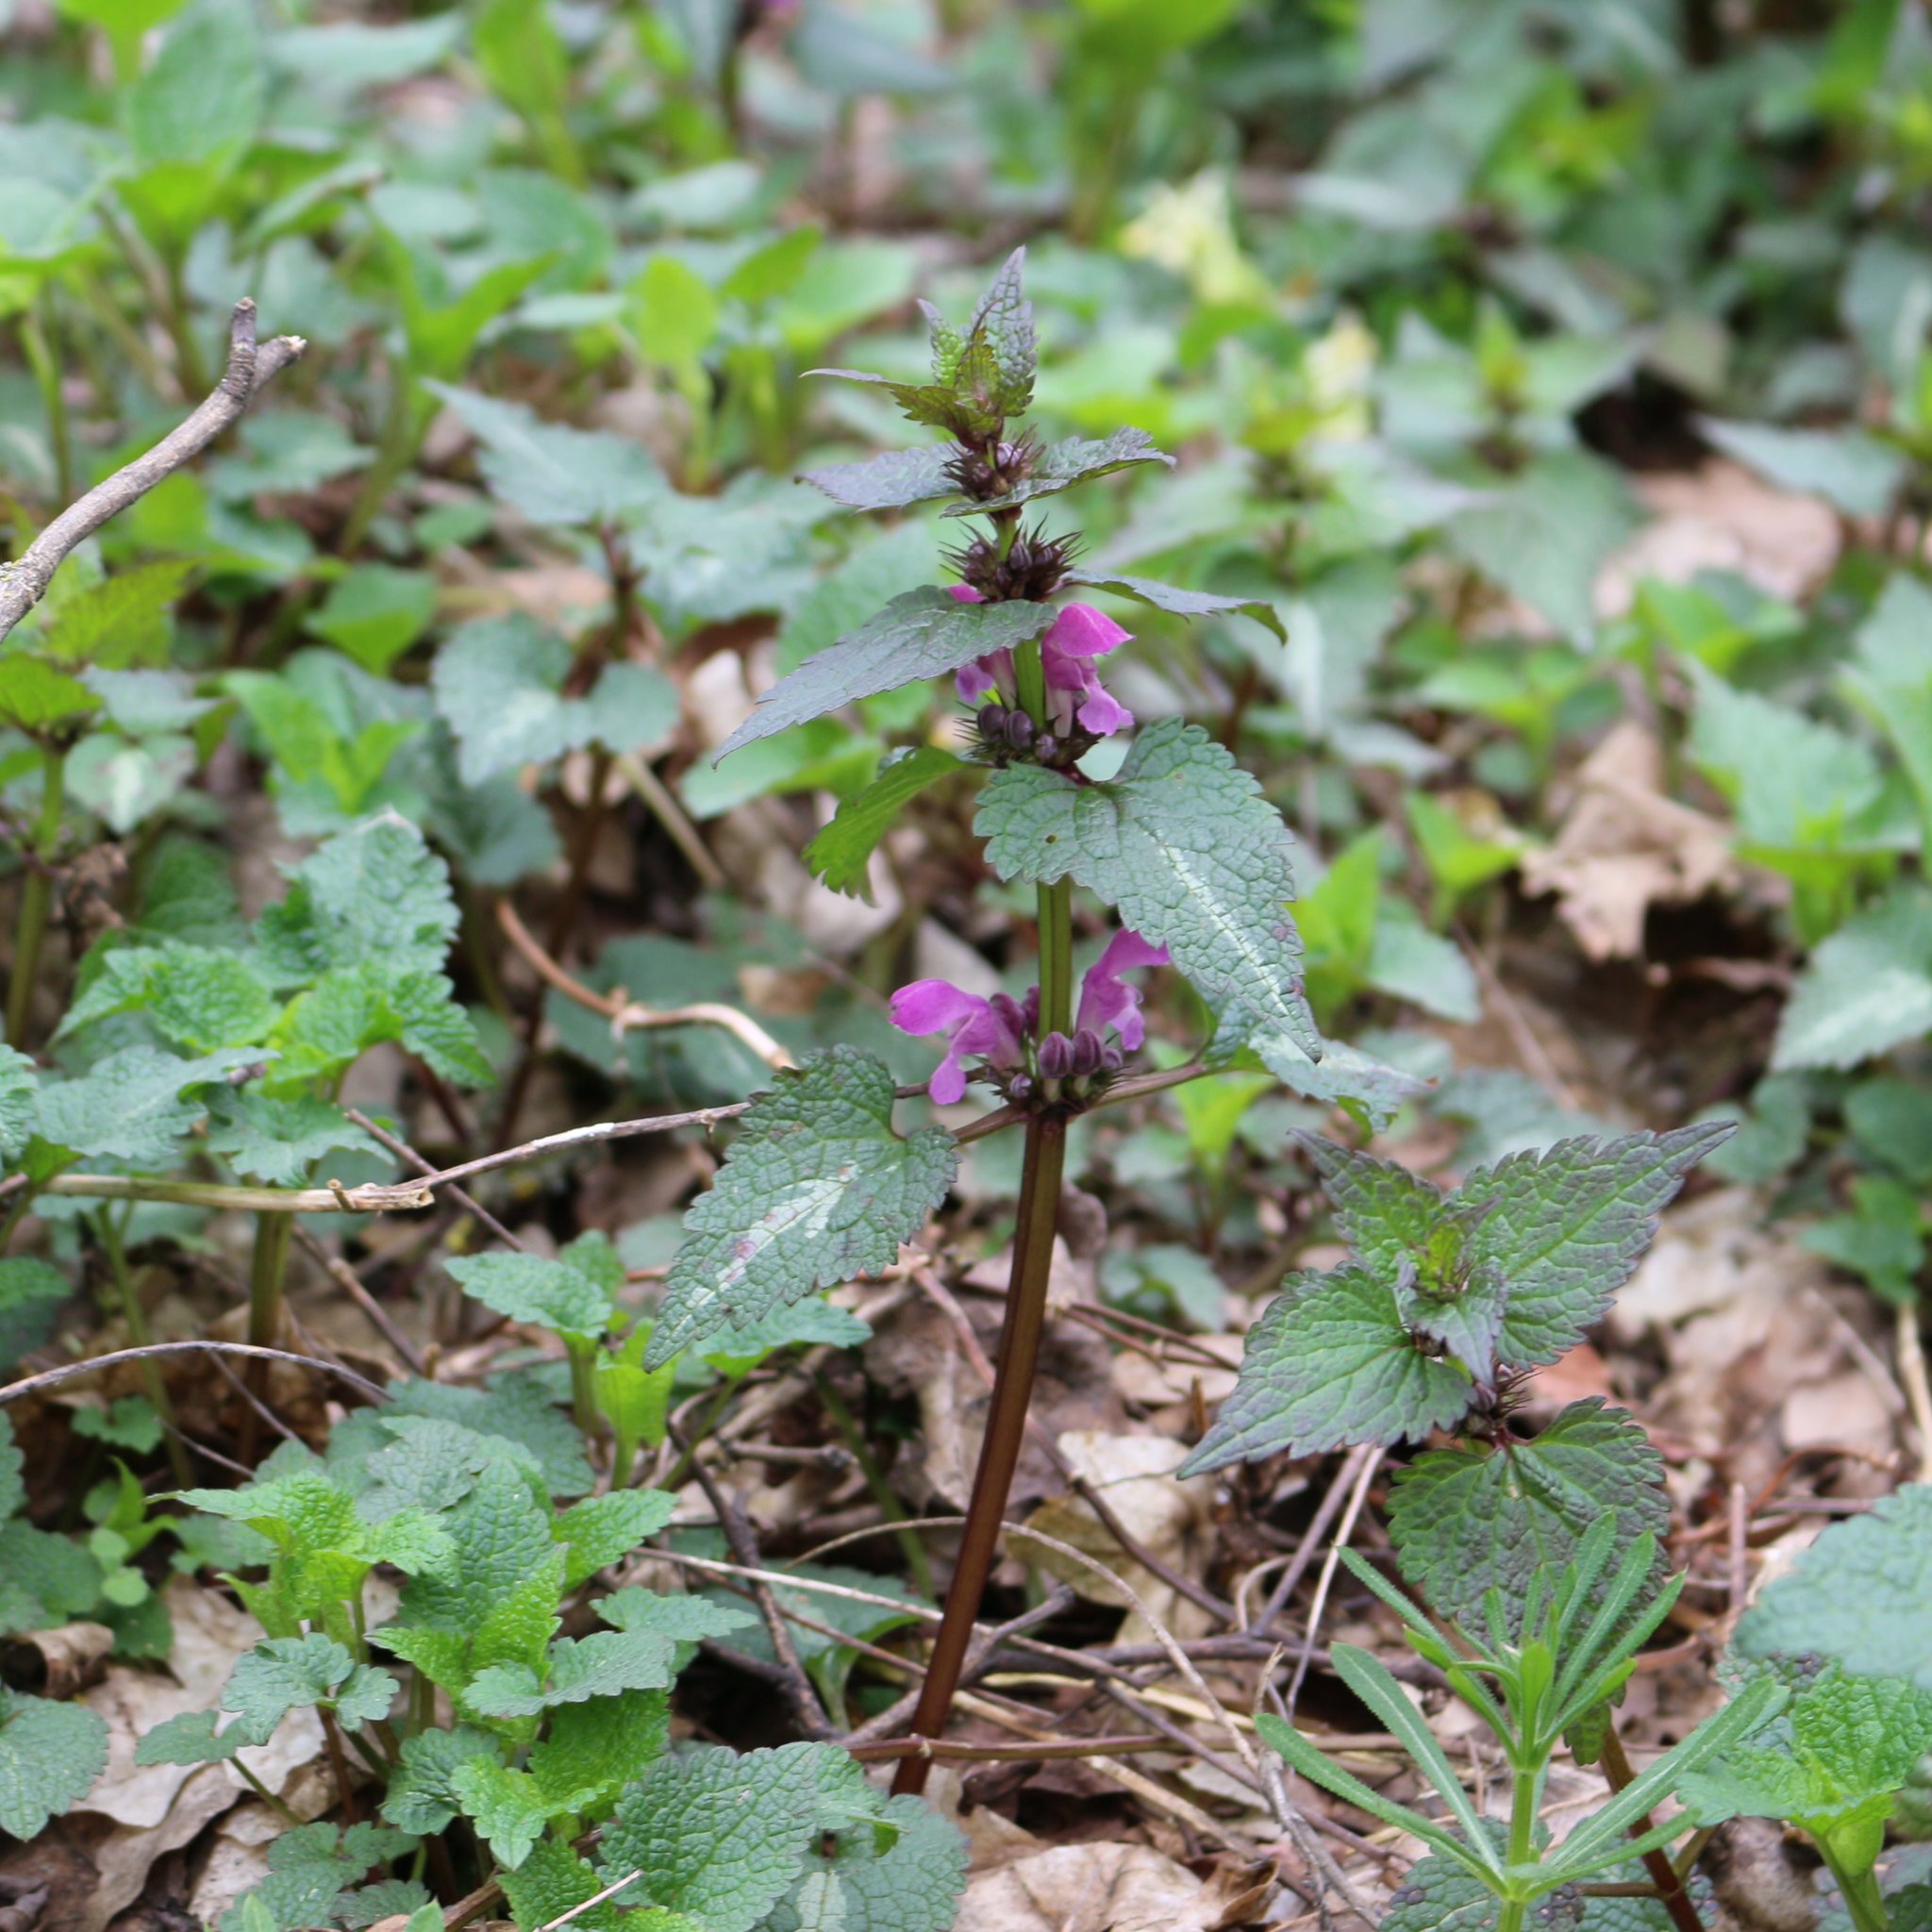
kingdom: Plantae
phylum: Tracheophyta
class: Magnoliopsida
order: Lamiales
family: Lamiaceae
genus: Lamium
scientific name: Lamium maculatum
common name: Spotted dead-nettle
